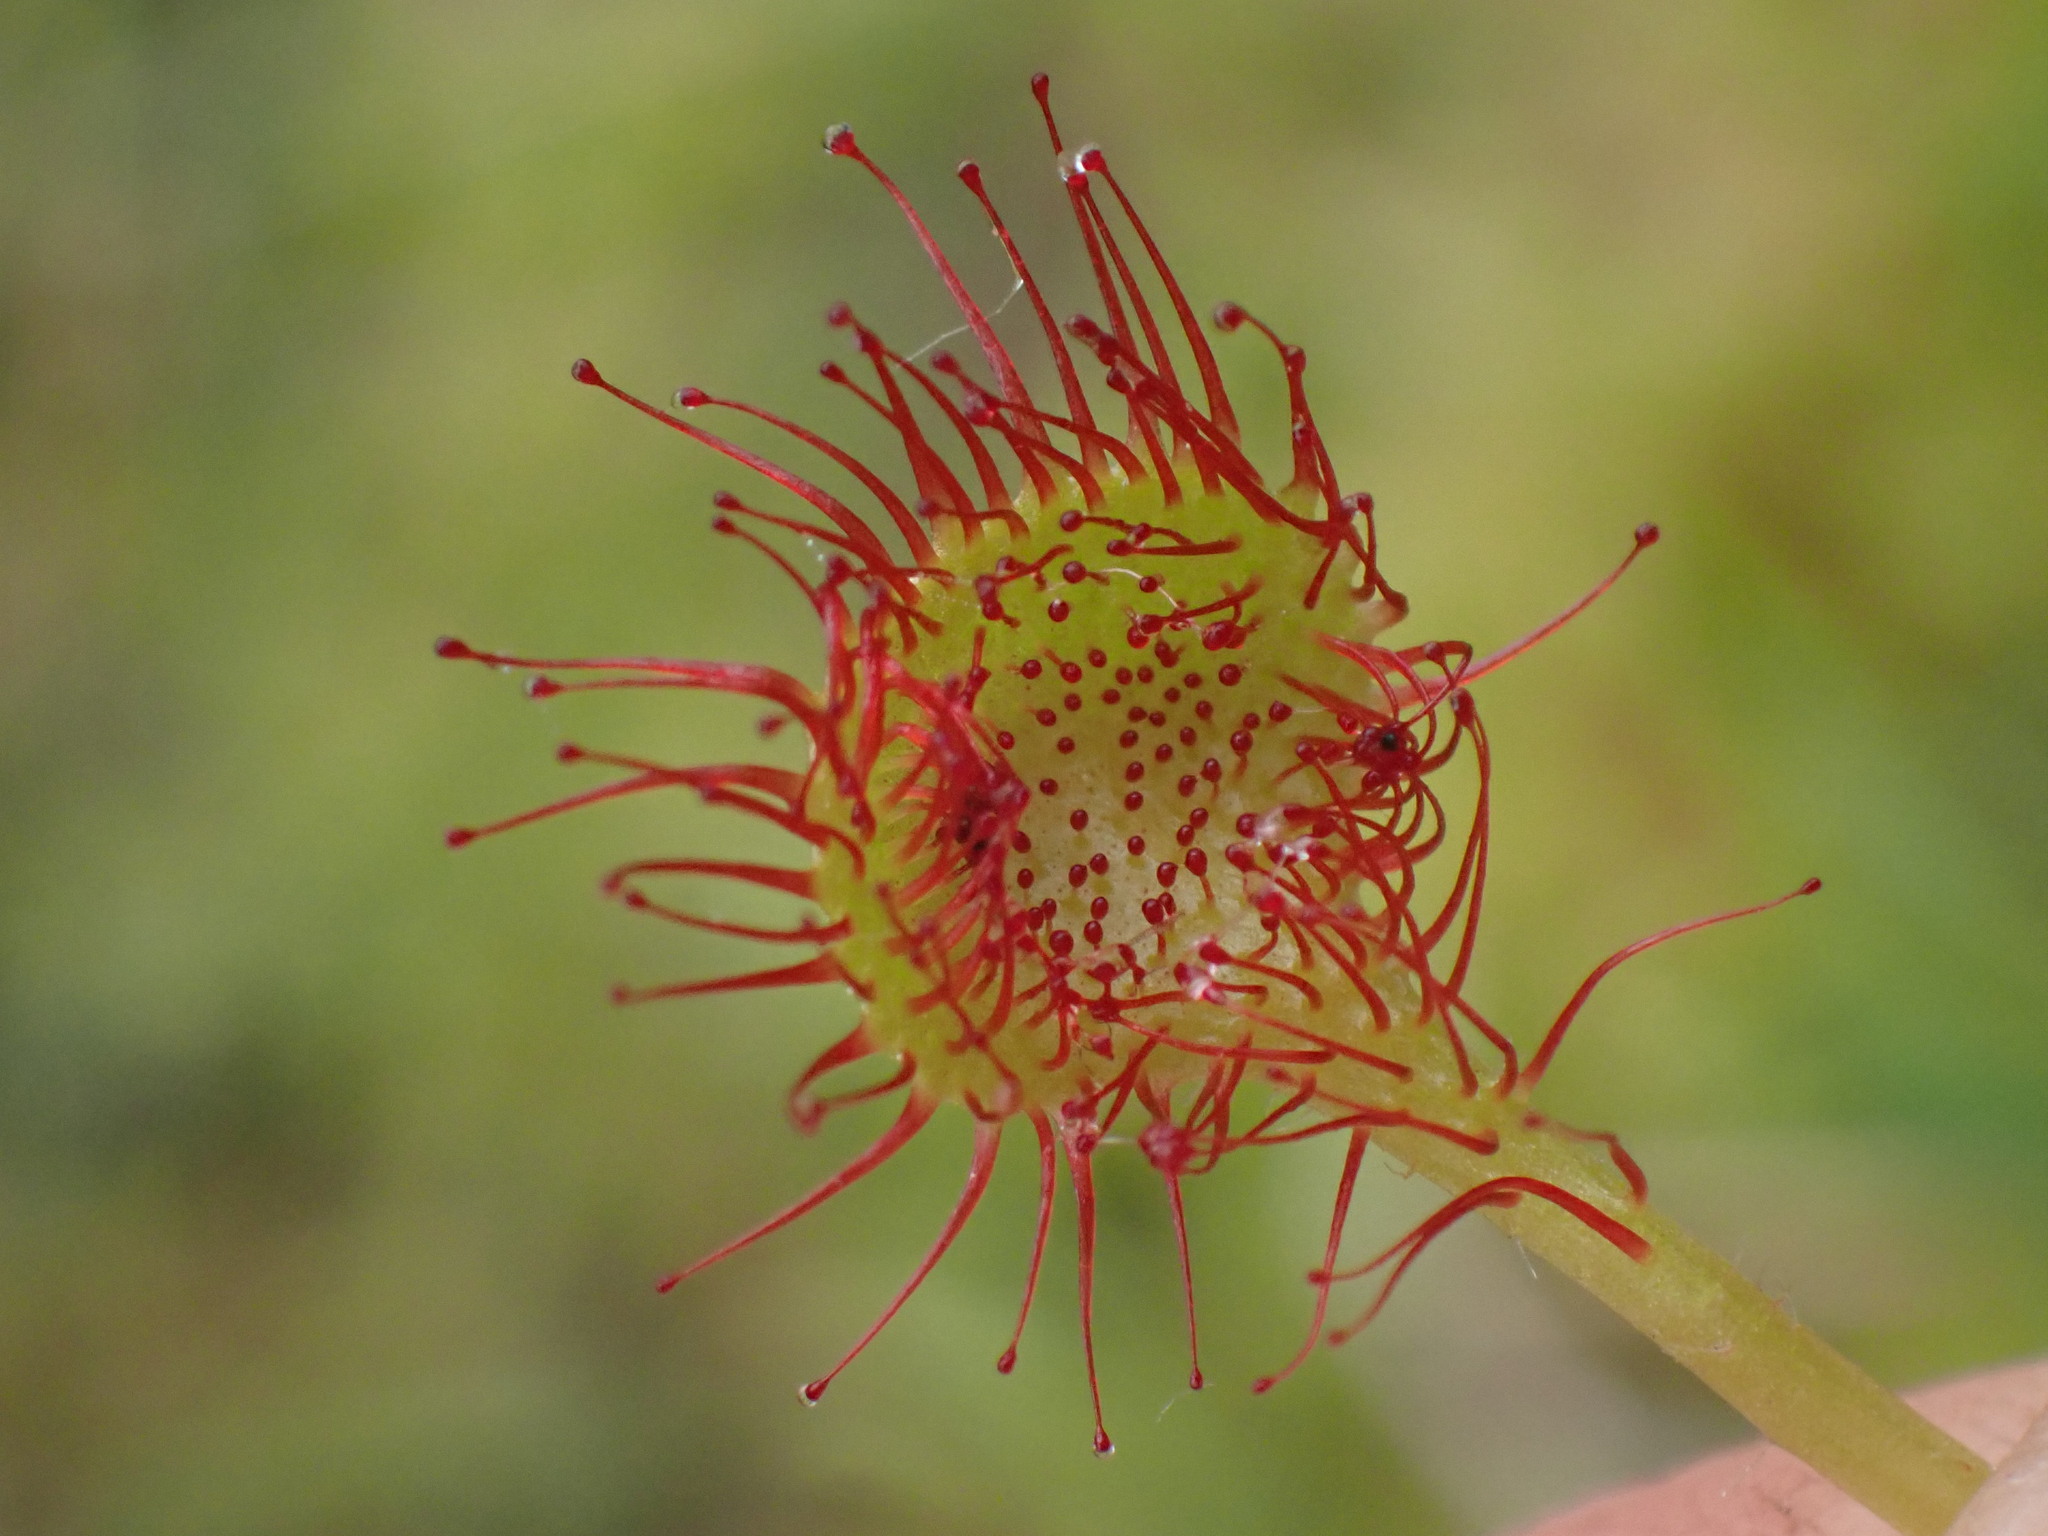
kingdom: Plantae
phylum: Tracheophyta
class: Magnoliopsida
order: Caryophyllales
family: Droseraceae
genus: Drosera
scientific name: Drosera rotundifolia
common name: Round-leaved sundew
